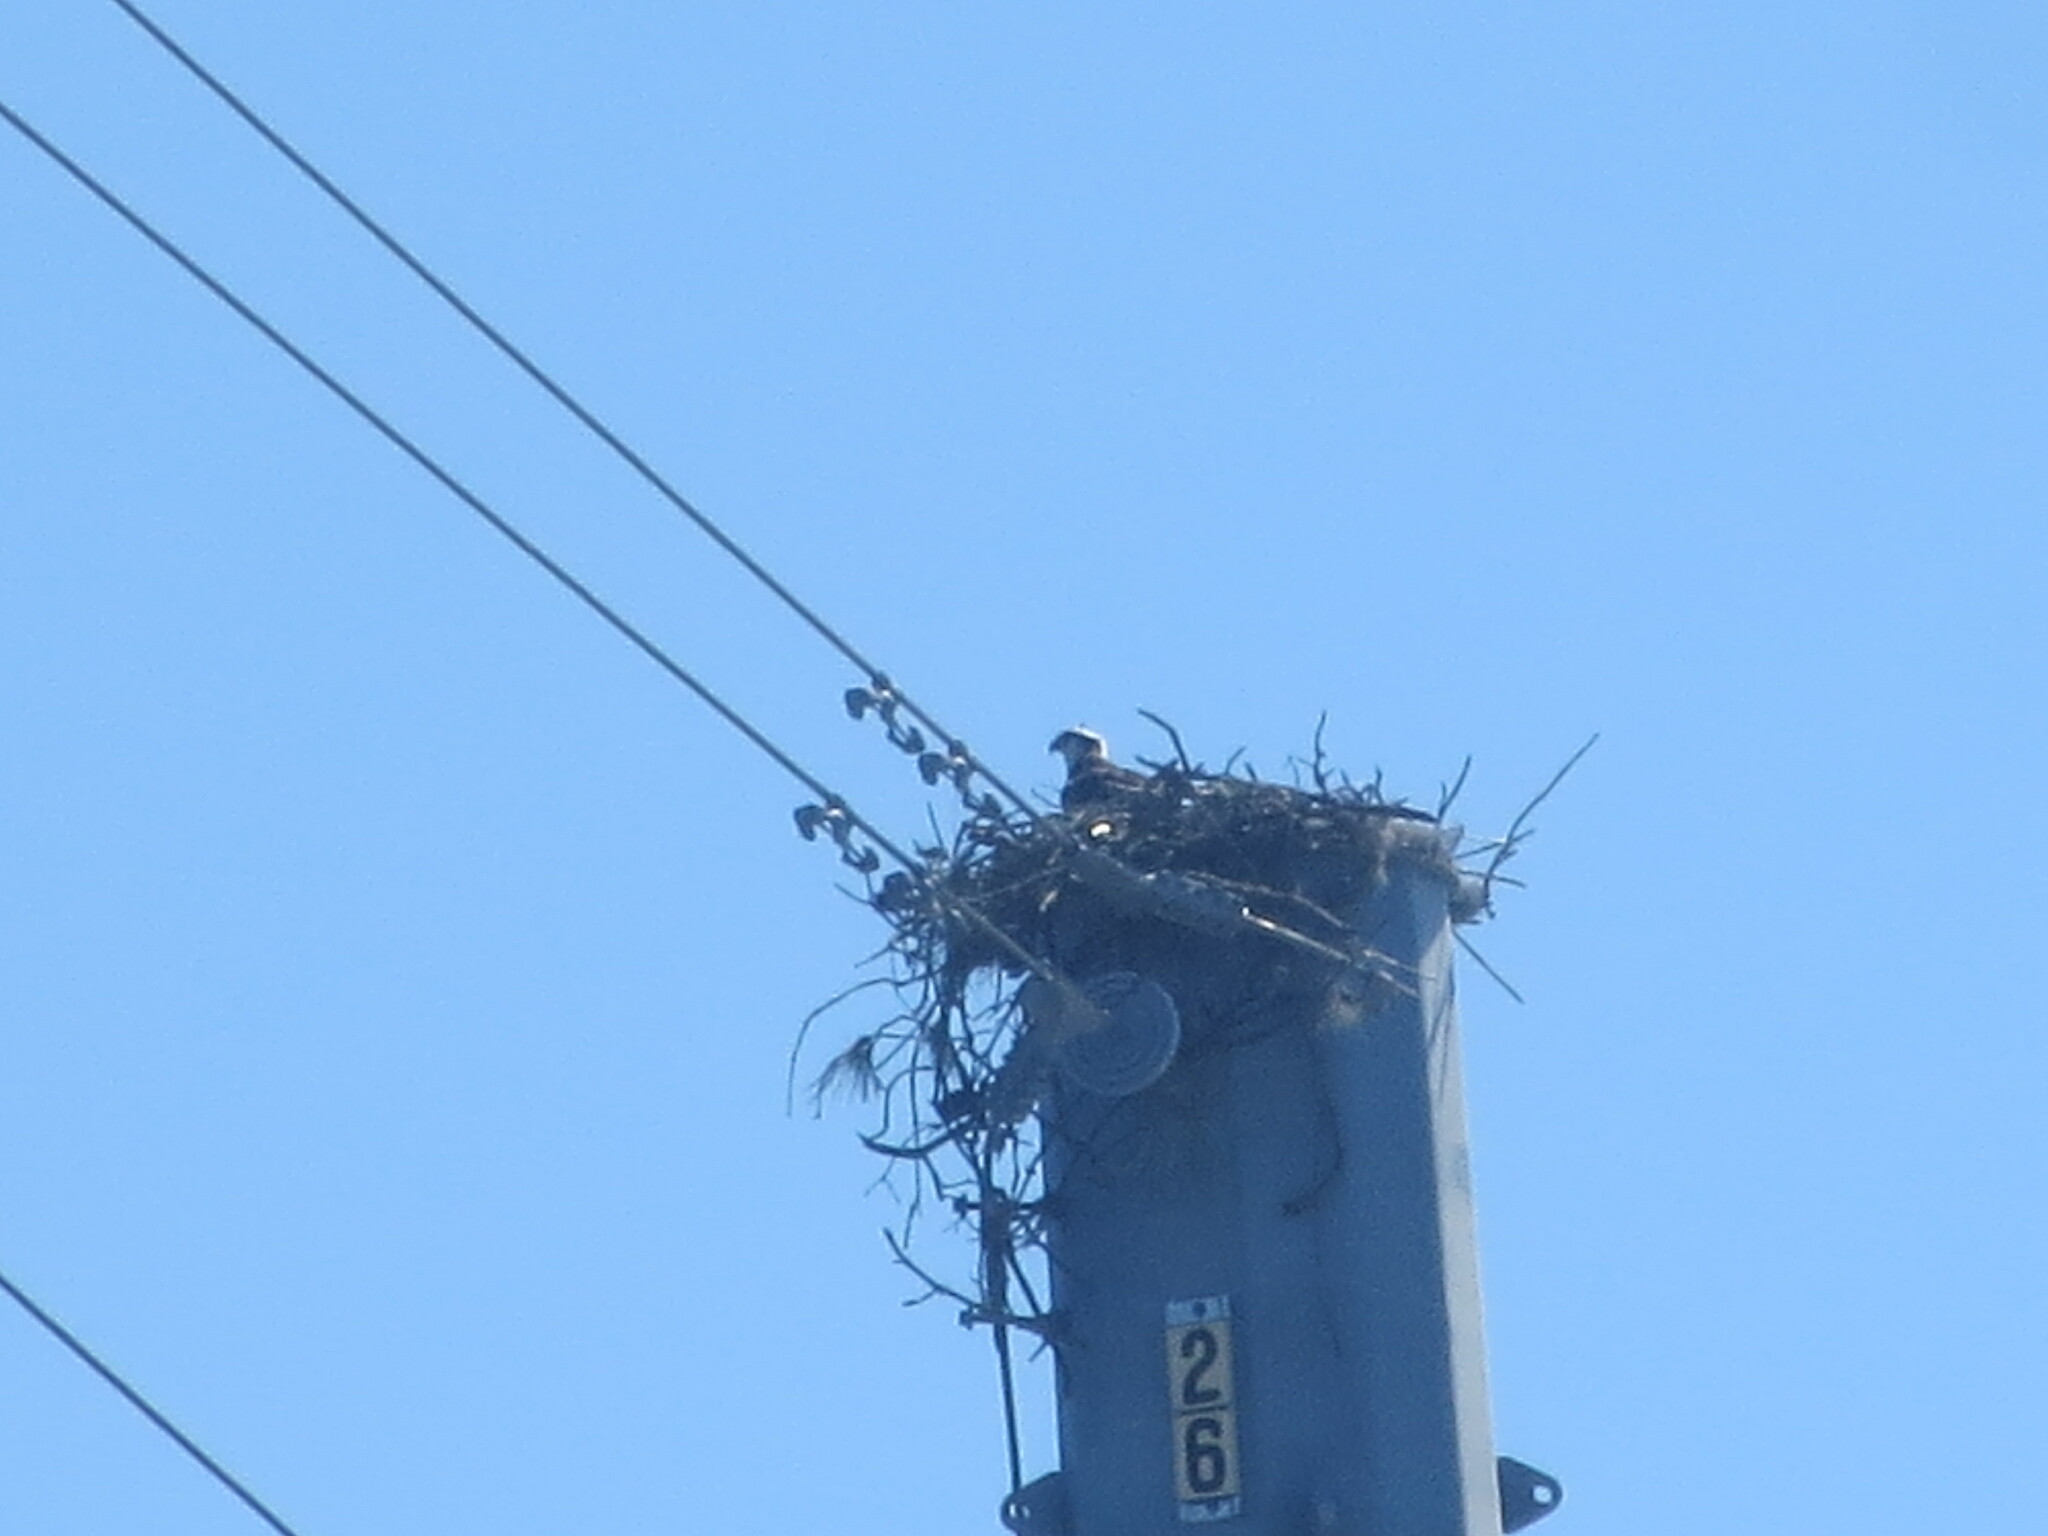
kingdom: Animalia
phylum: Chordata
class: Aves
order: Accipitriformes
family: Pandionidae
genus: Pandion
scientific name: Pandion haliaetus
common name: Osprey
